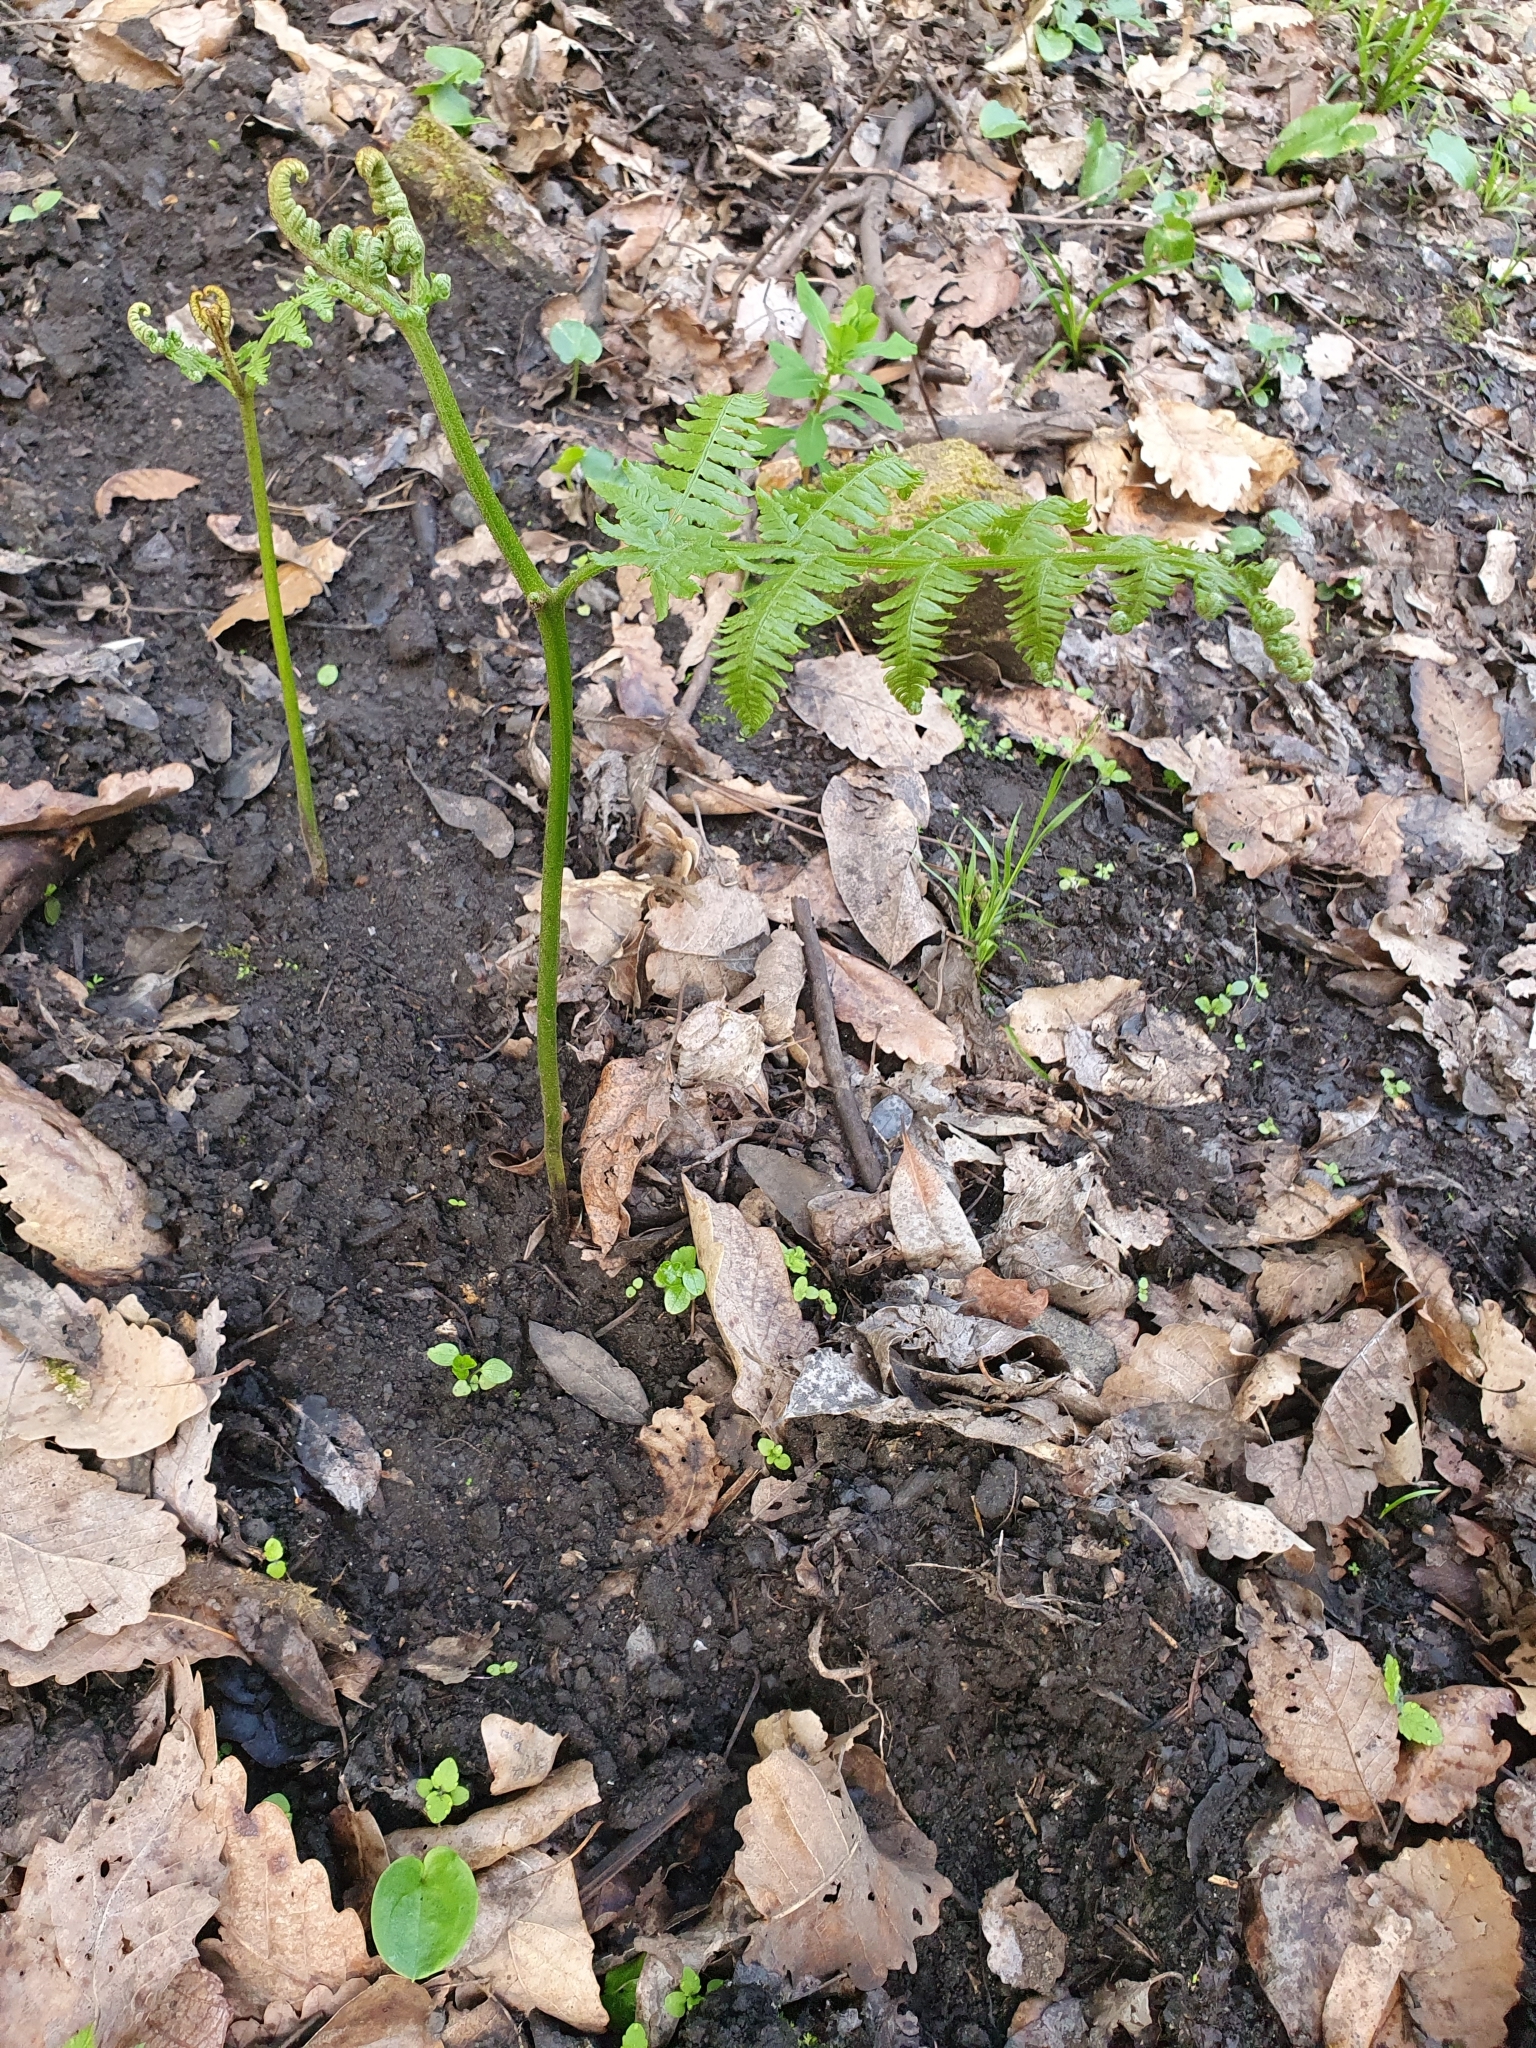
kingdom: Plantae
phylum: Tracheophyta
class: Polypodiopsida
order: Polypodiales
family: Dennstaedtiaceae
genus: Pteridium
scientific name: Pteridium aquilinum
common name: Bracken
